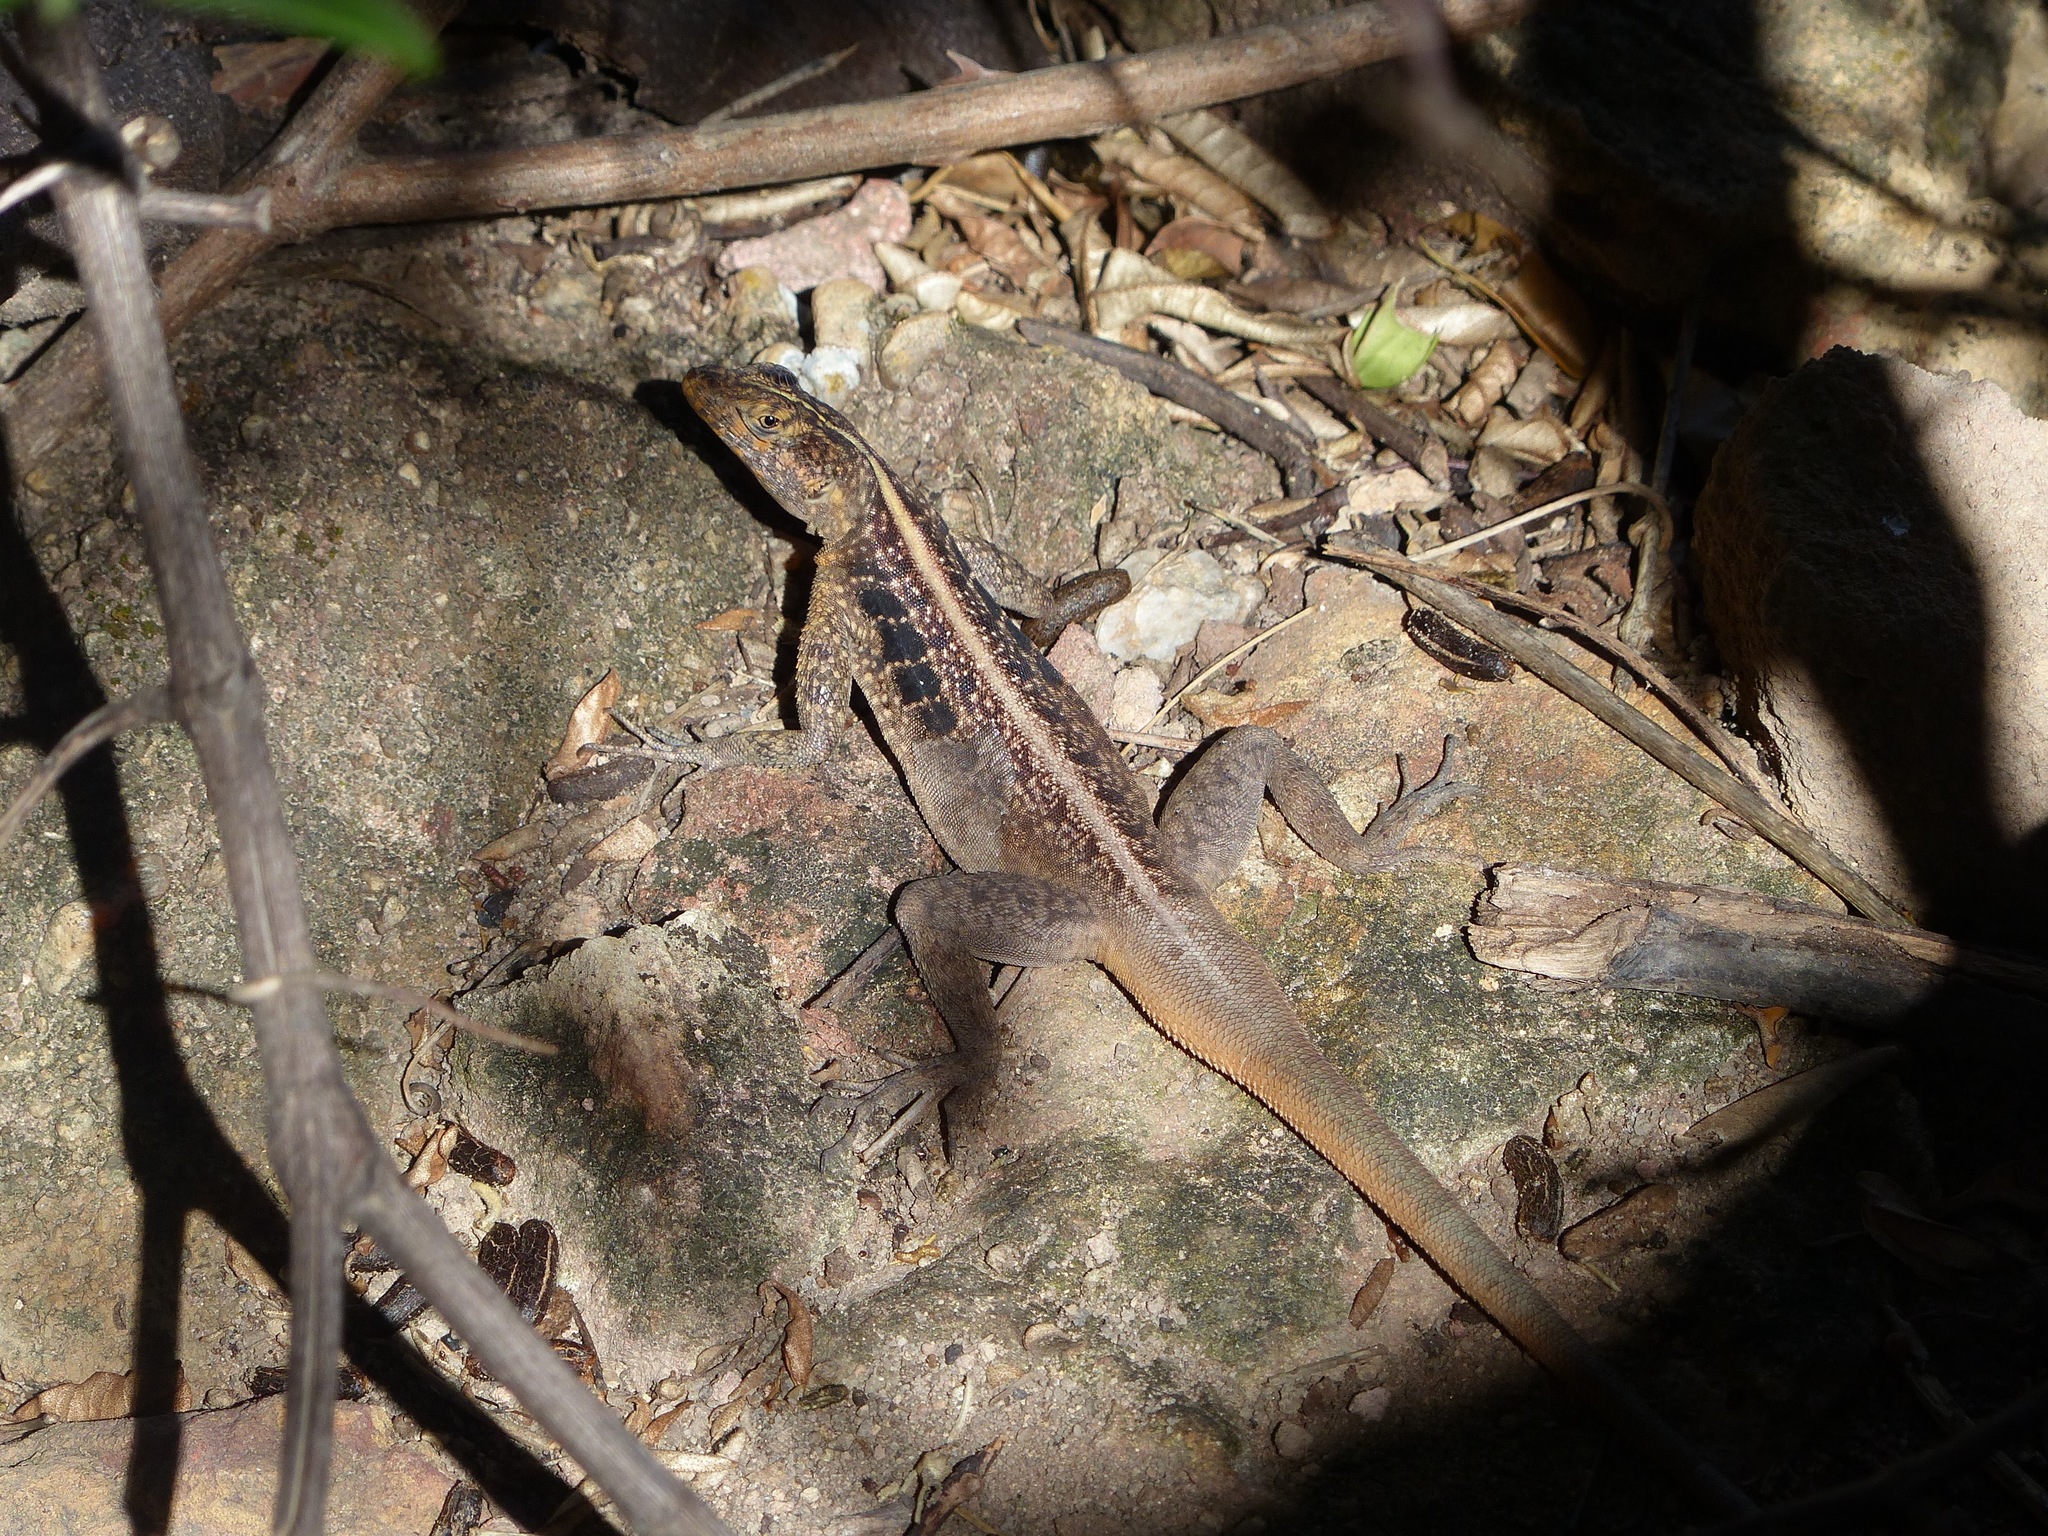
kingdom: Animalia
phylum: Chordata
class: Squamata
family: Tropiduridae
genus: Tropidurus
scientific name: Tropidurus semitaeniatus
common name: Striped lava lizard
